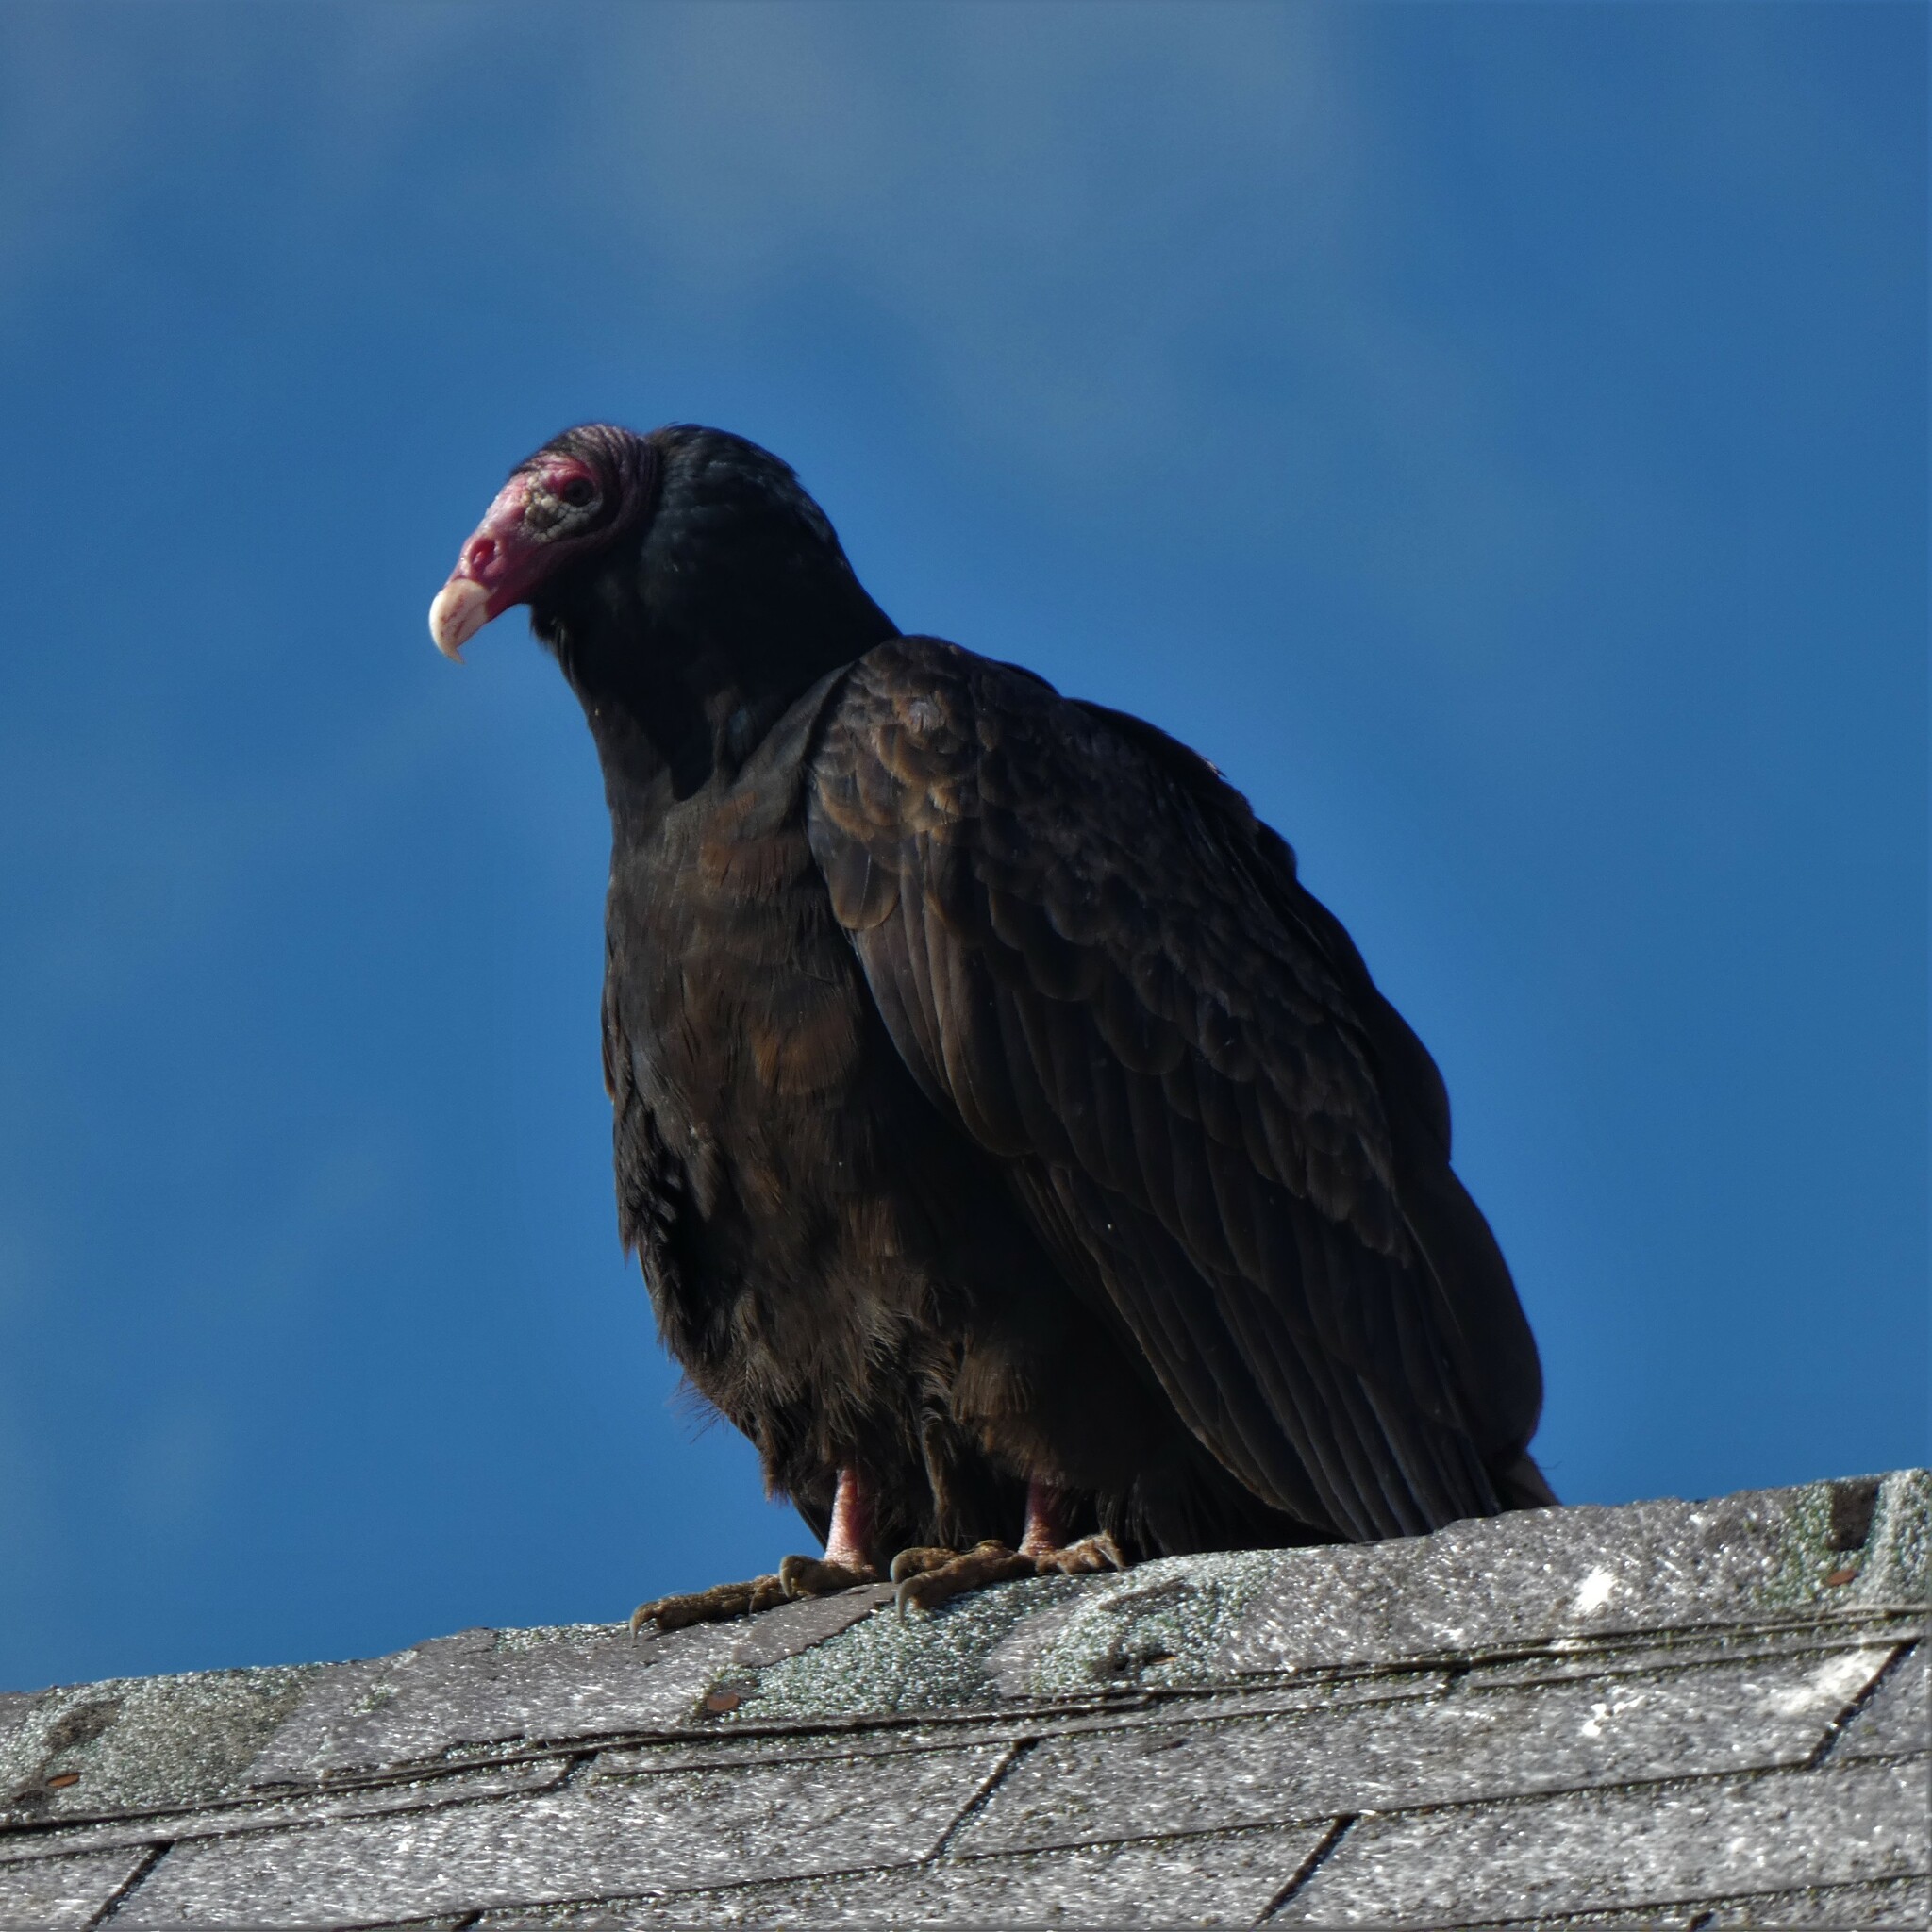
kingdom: Animalia
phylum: Chordata
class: Aves
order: Accipitriformes
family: Cathartidae
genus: Cathartes
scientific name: Cathartes aura
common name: Turkey vulture
